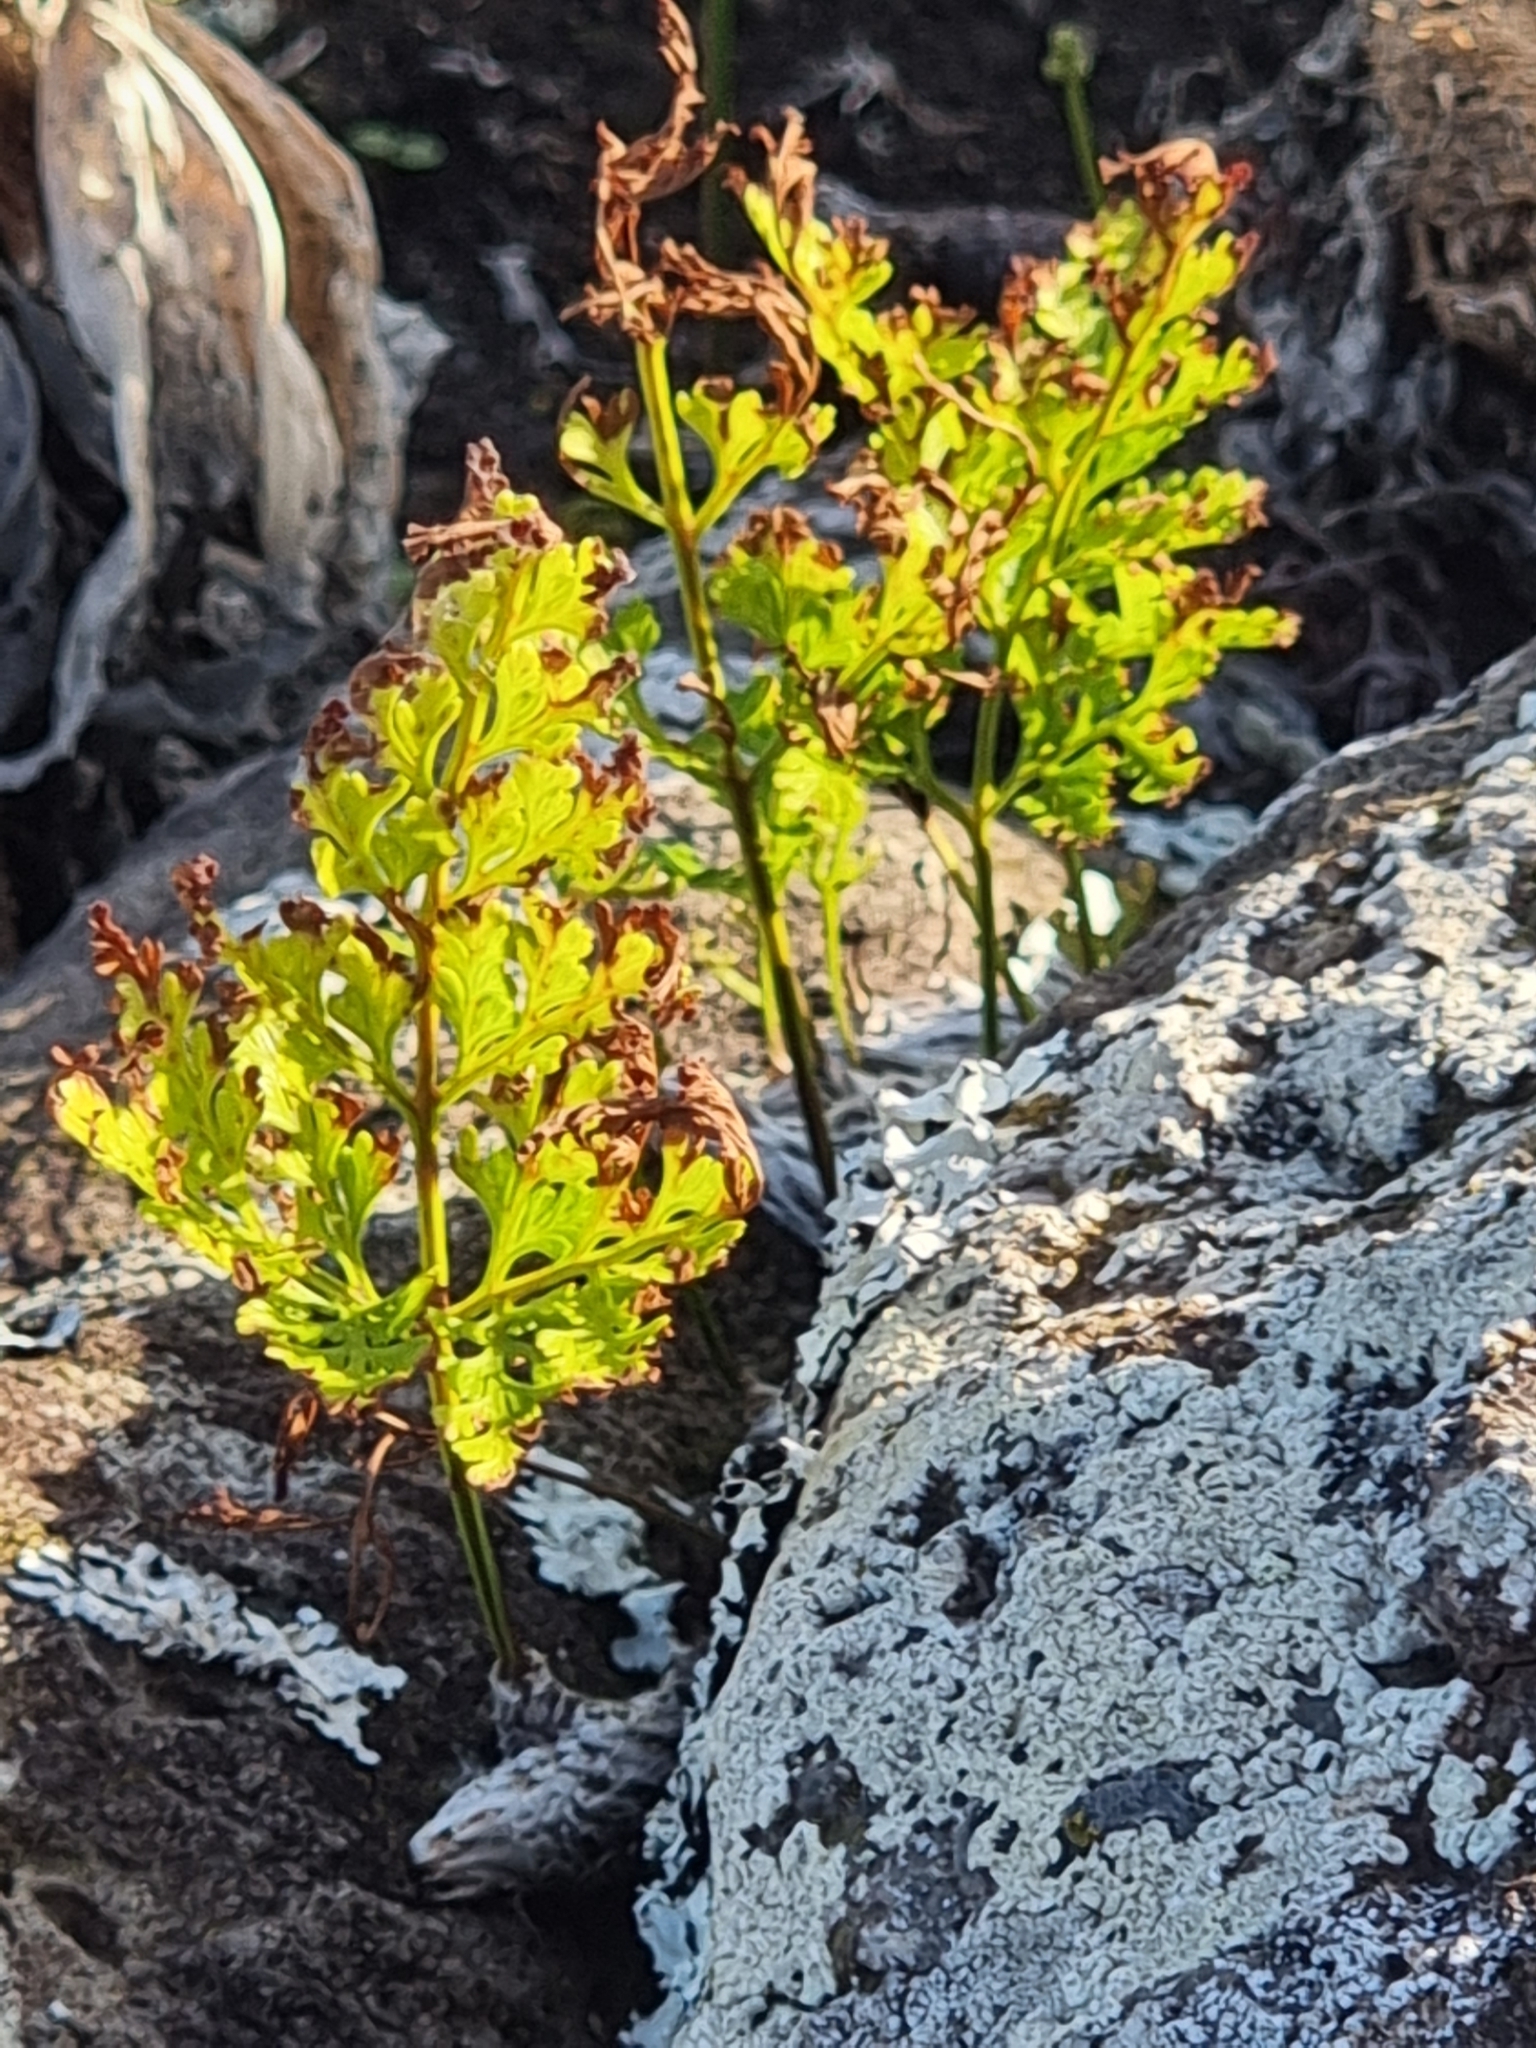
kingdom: Plantae
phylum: Tracheophyta
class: Polypodiopsida
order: Polypodiales
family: Davalliaceae
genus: Davallia
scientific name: Davallia canariensis
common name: Hare's-foot fern
